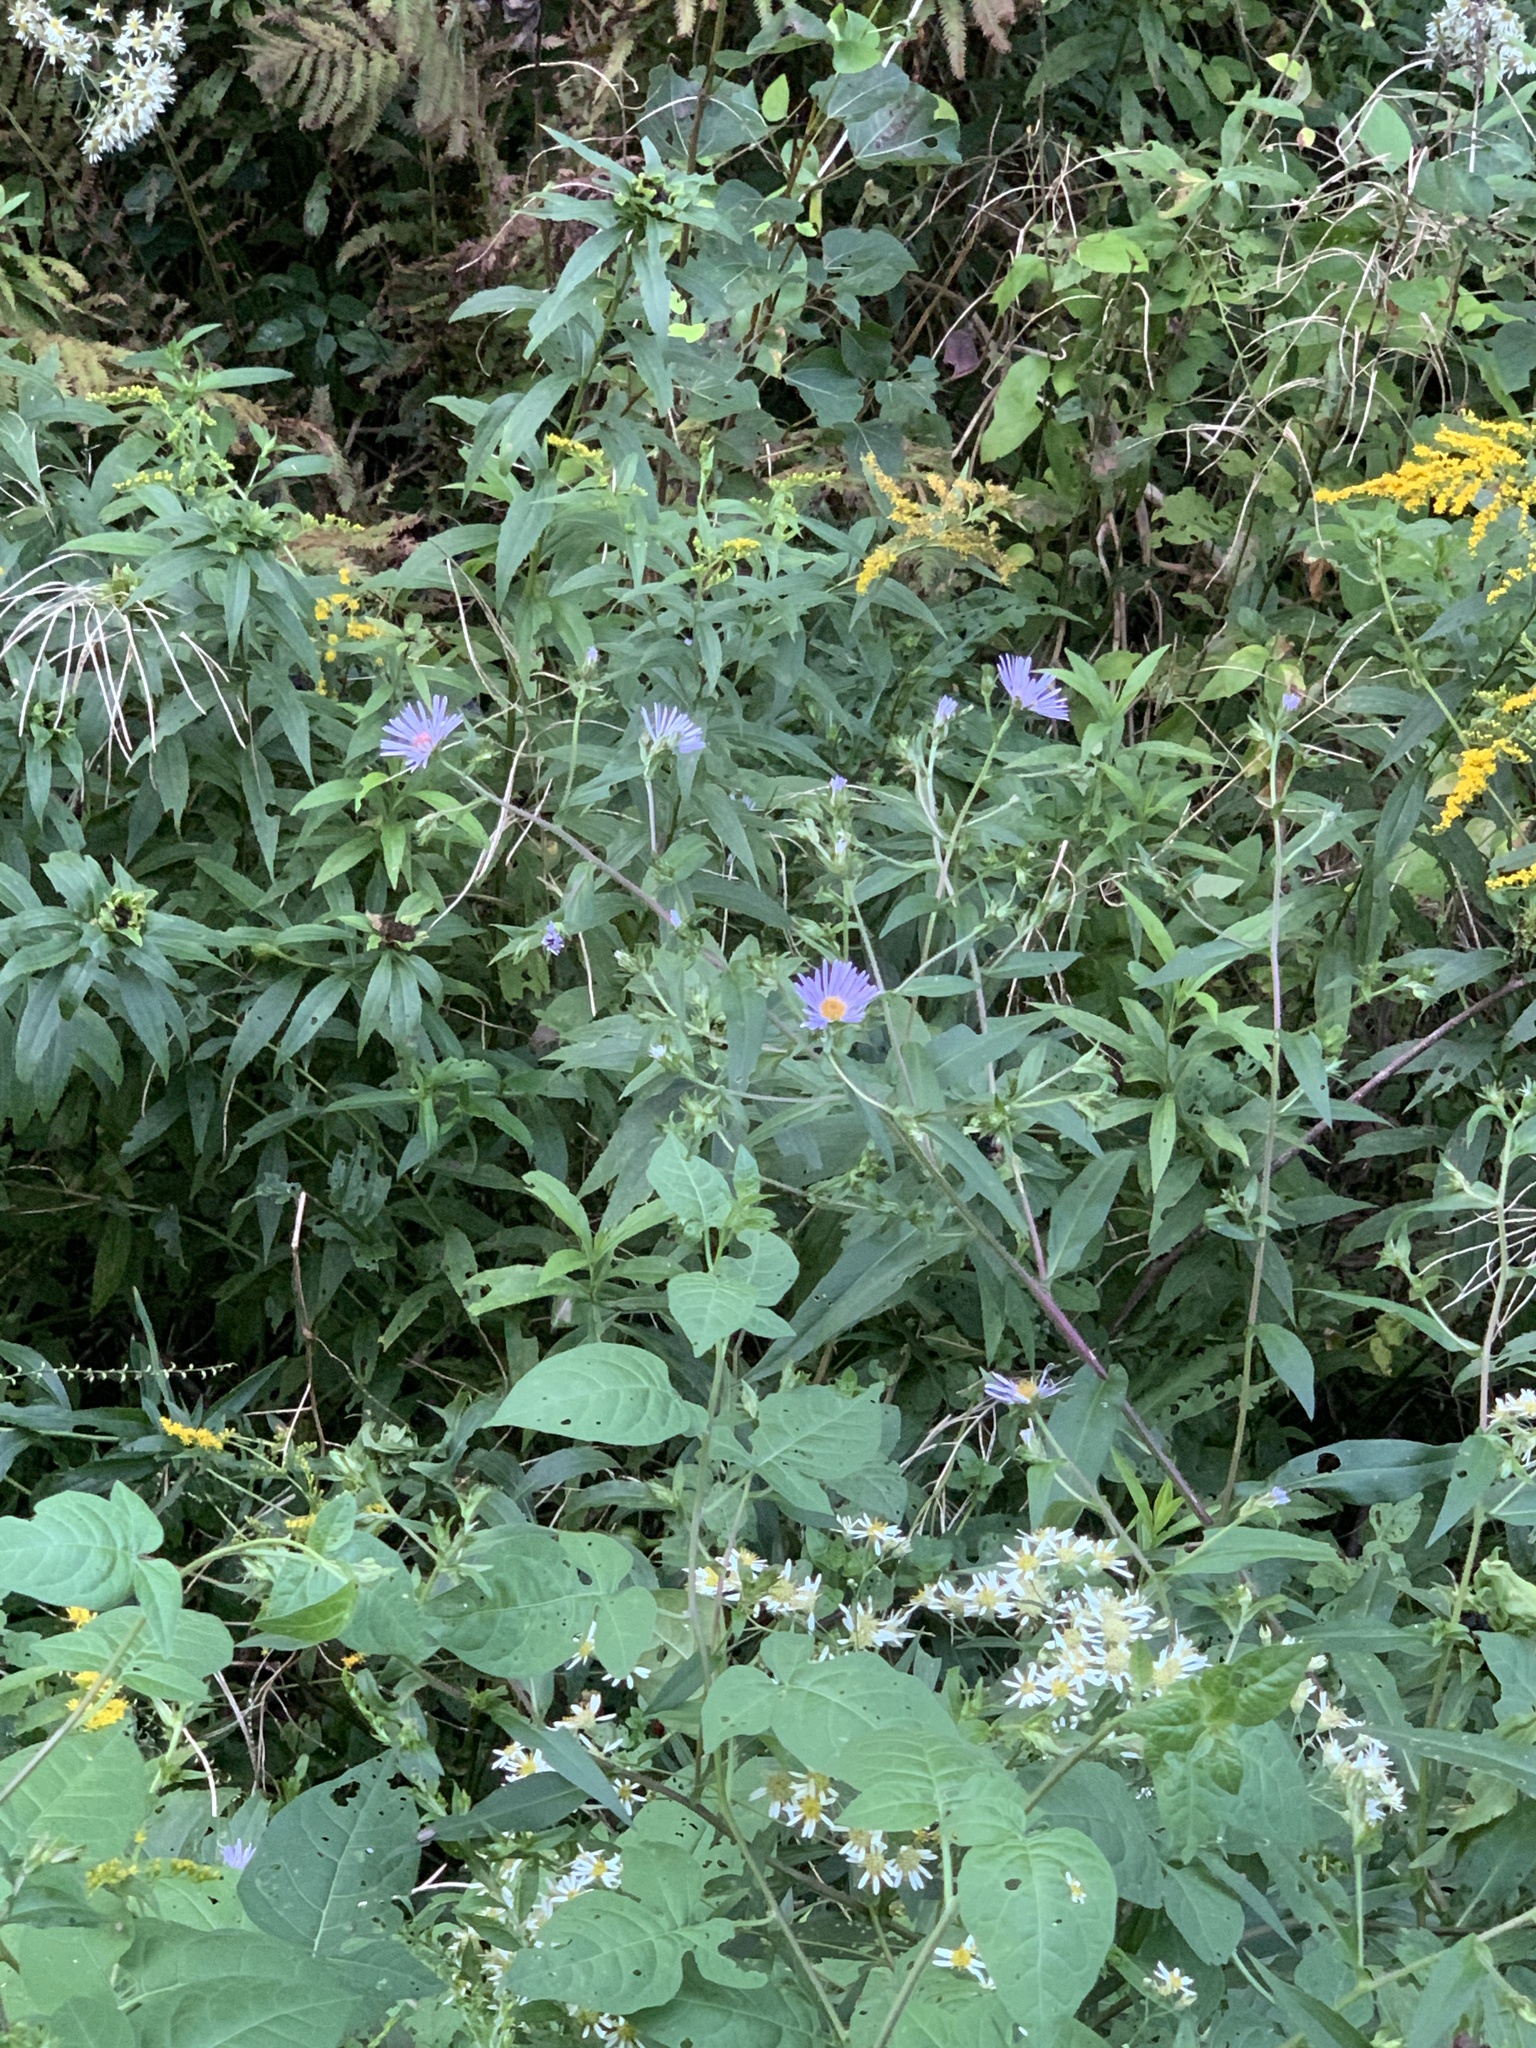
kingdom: Plantae
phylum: Tracheophyta
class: Magnoliopsida
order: Asterales
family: Asteraceae
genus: Symphyotrichum
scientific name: Symphyotrichum puniceum
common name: Bog aster
